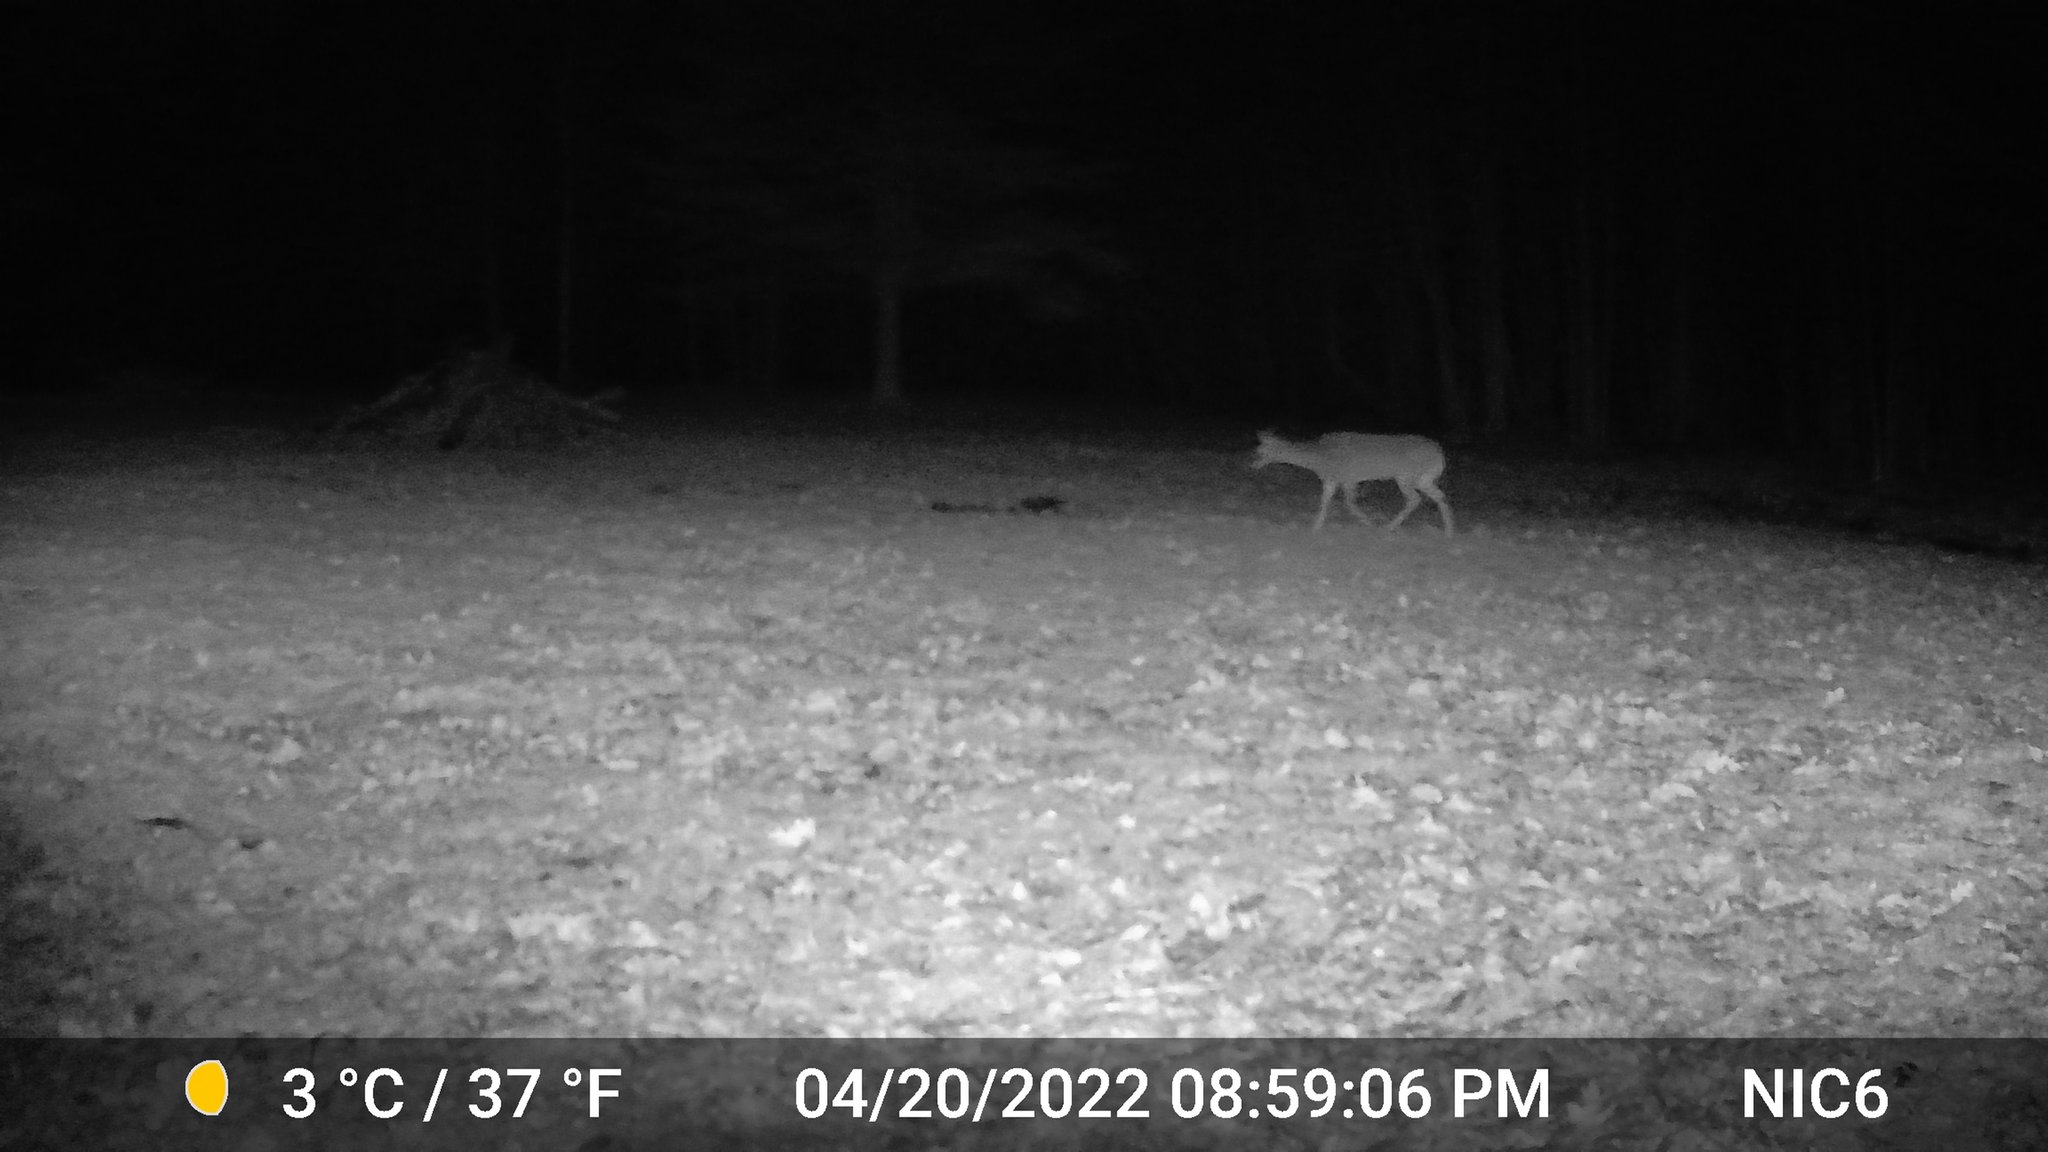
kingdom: Animalia
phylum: Chordata
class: Mammalia
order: Artiodactyla
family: Cervidae
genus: Odocoileus
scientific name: Odocoileus virginianus
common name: White-tailed deer
